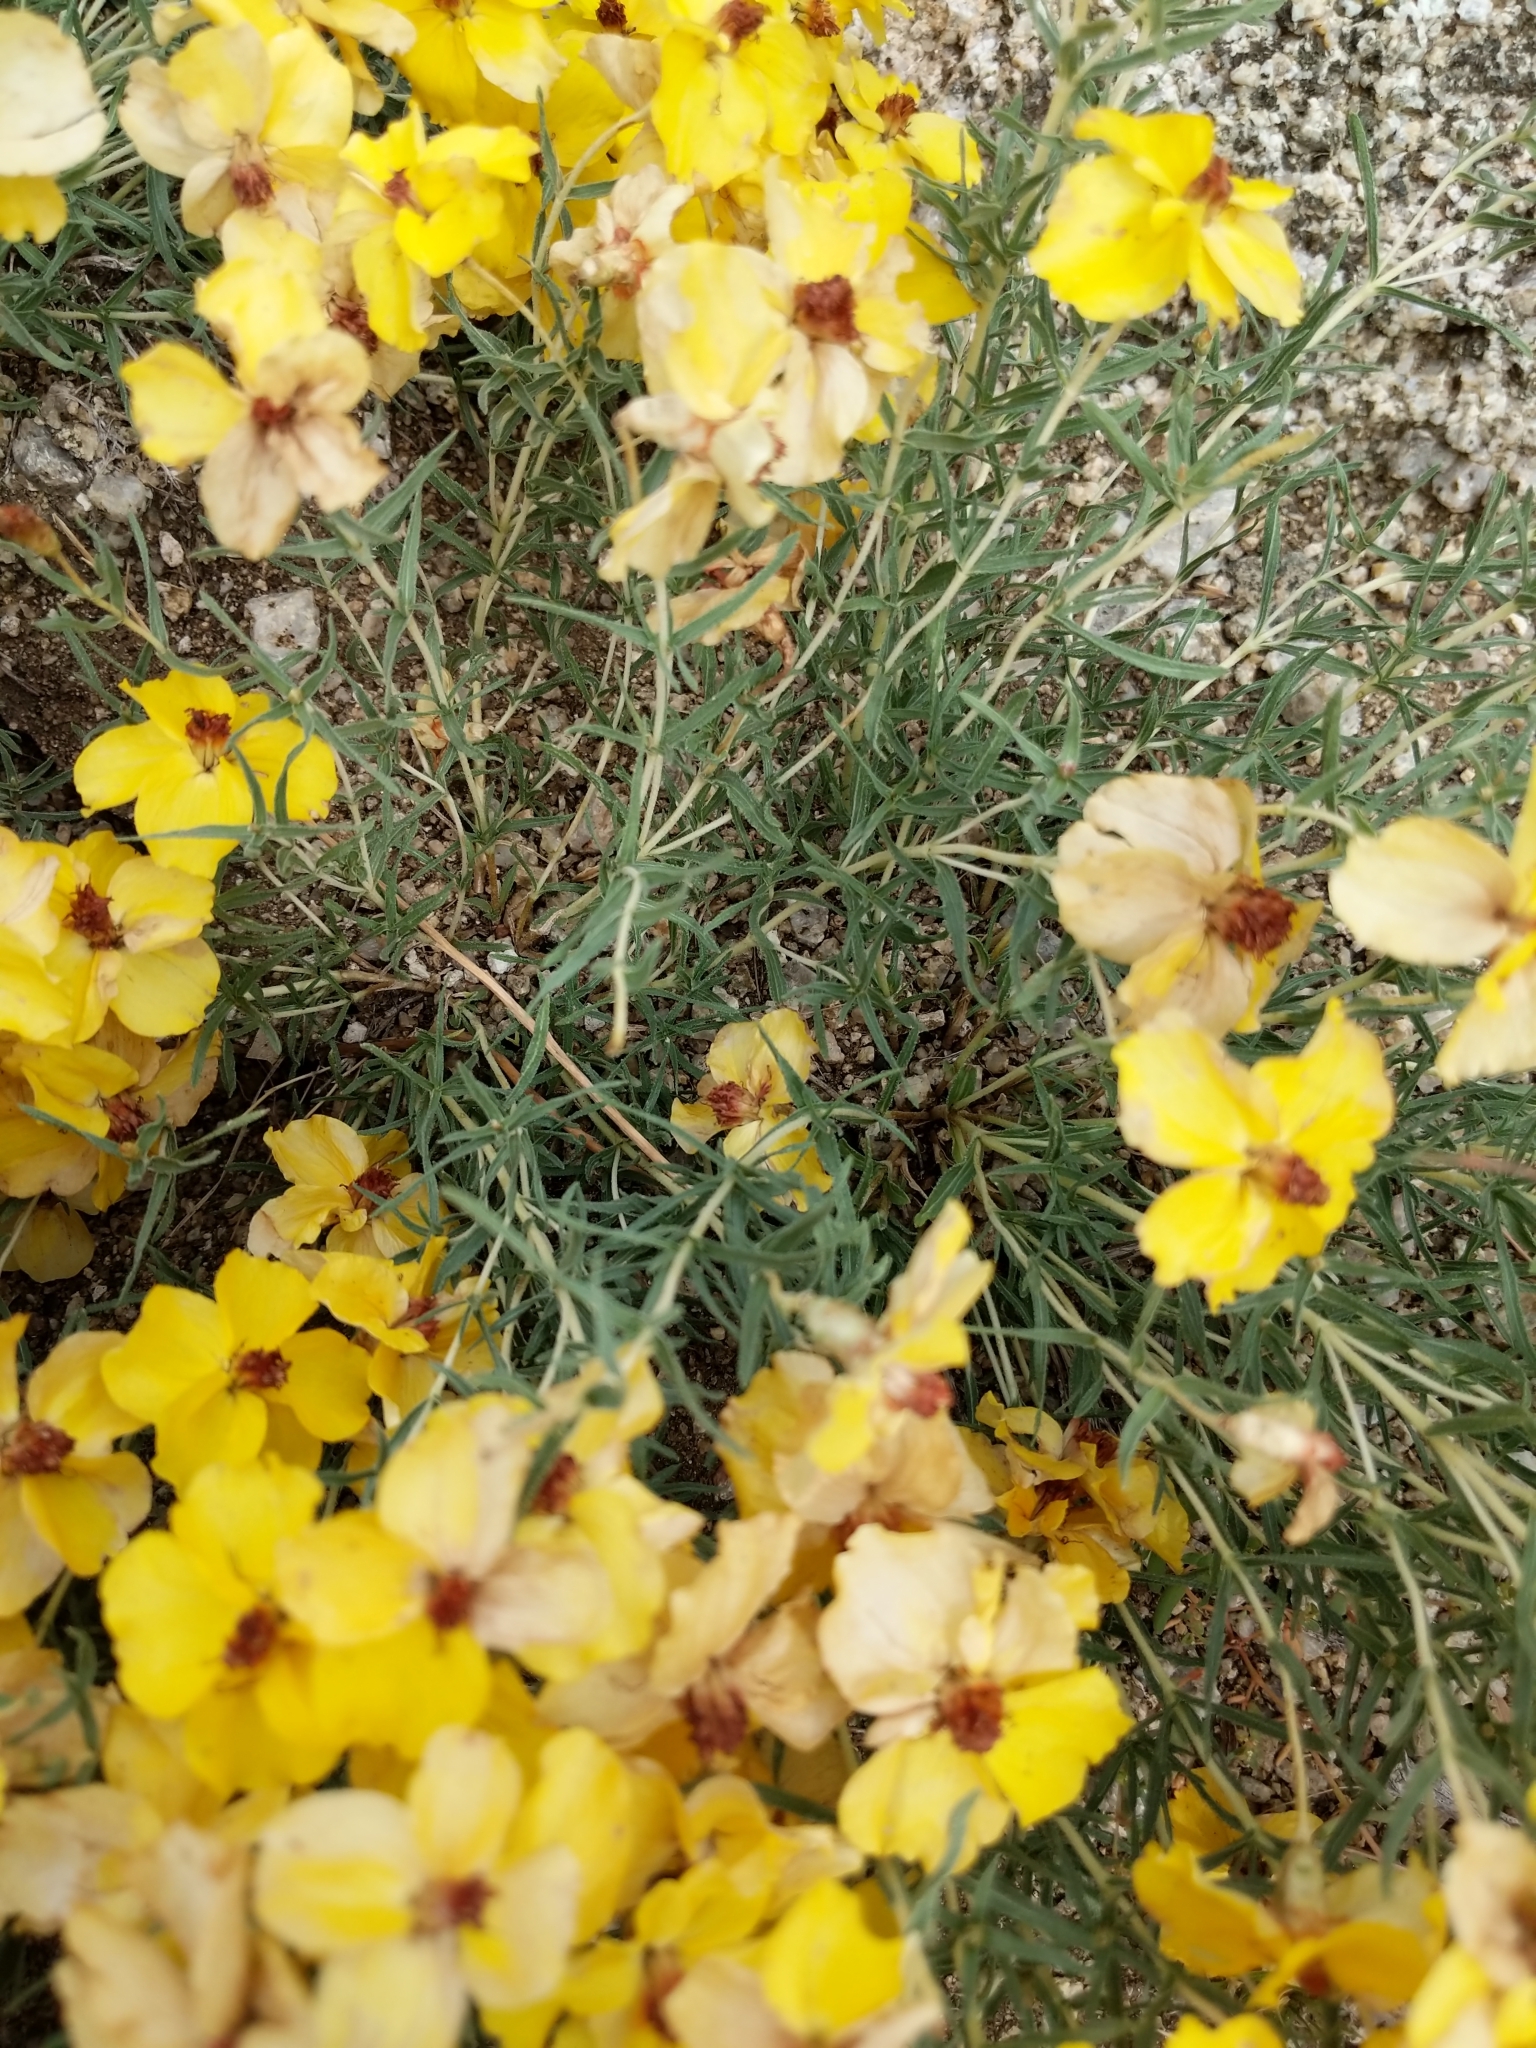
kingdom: Plantae
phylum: Tracheophyta
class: Magnoliopsida
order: Asterales
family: Asteraceae
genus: Zinnia
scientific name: Zinnia grandiflora
